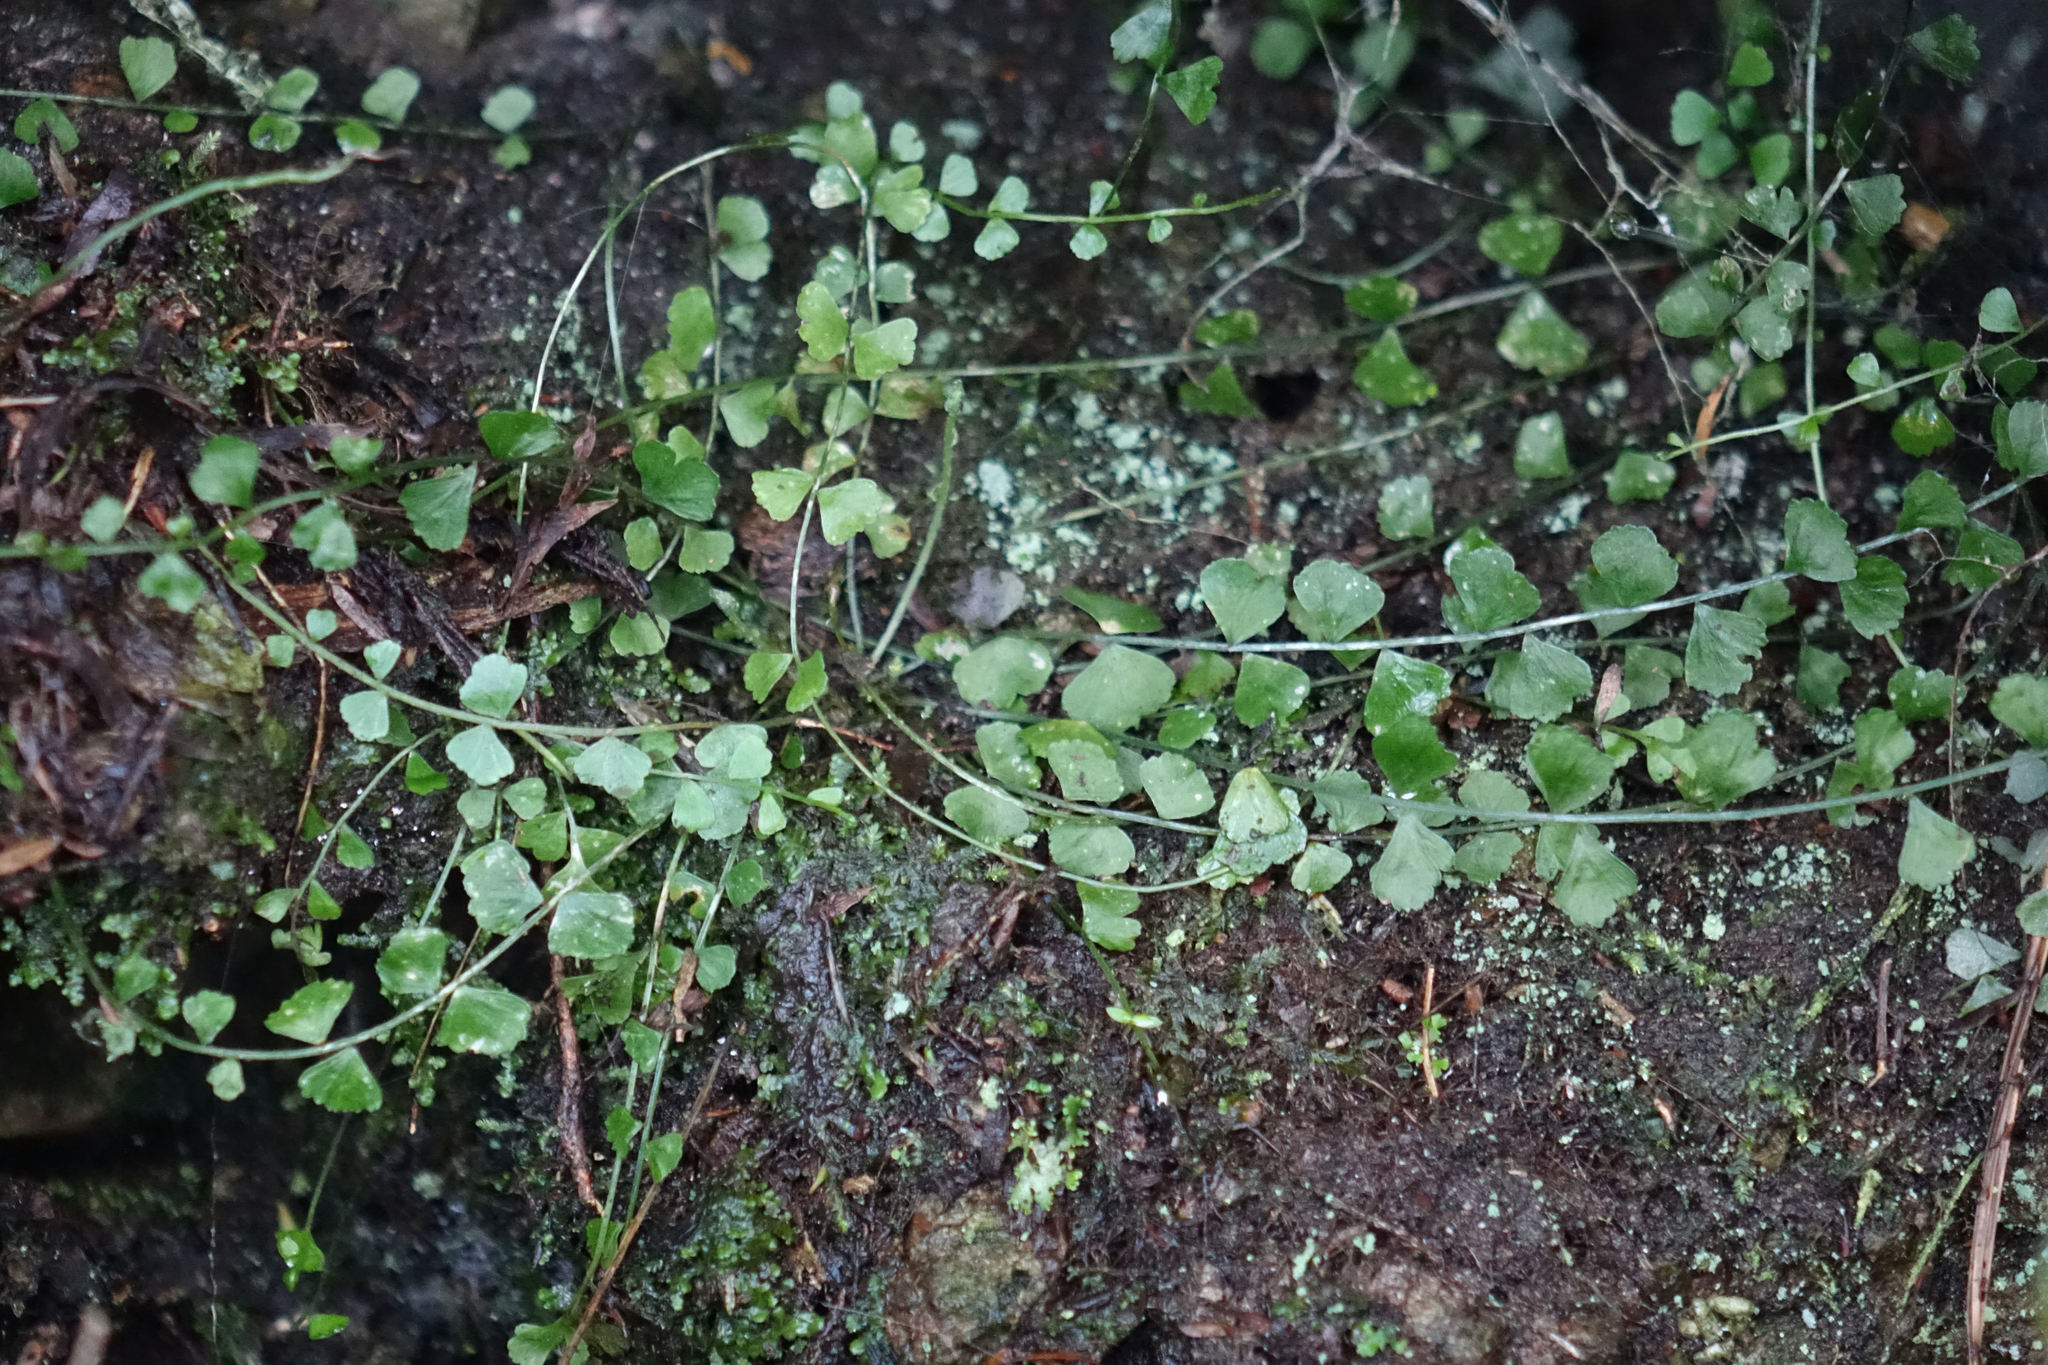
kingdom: Plantae
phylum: Tracheophyta
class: Polypodiopsida
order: Polypodiales
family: Aspleniaceae
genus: Asplenium
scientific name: Asplenium flabellifolium
